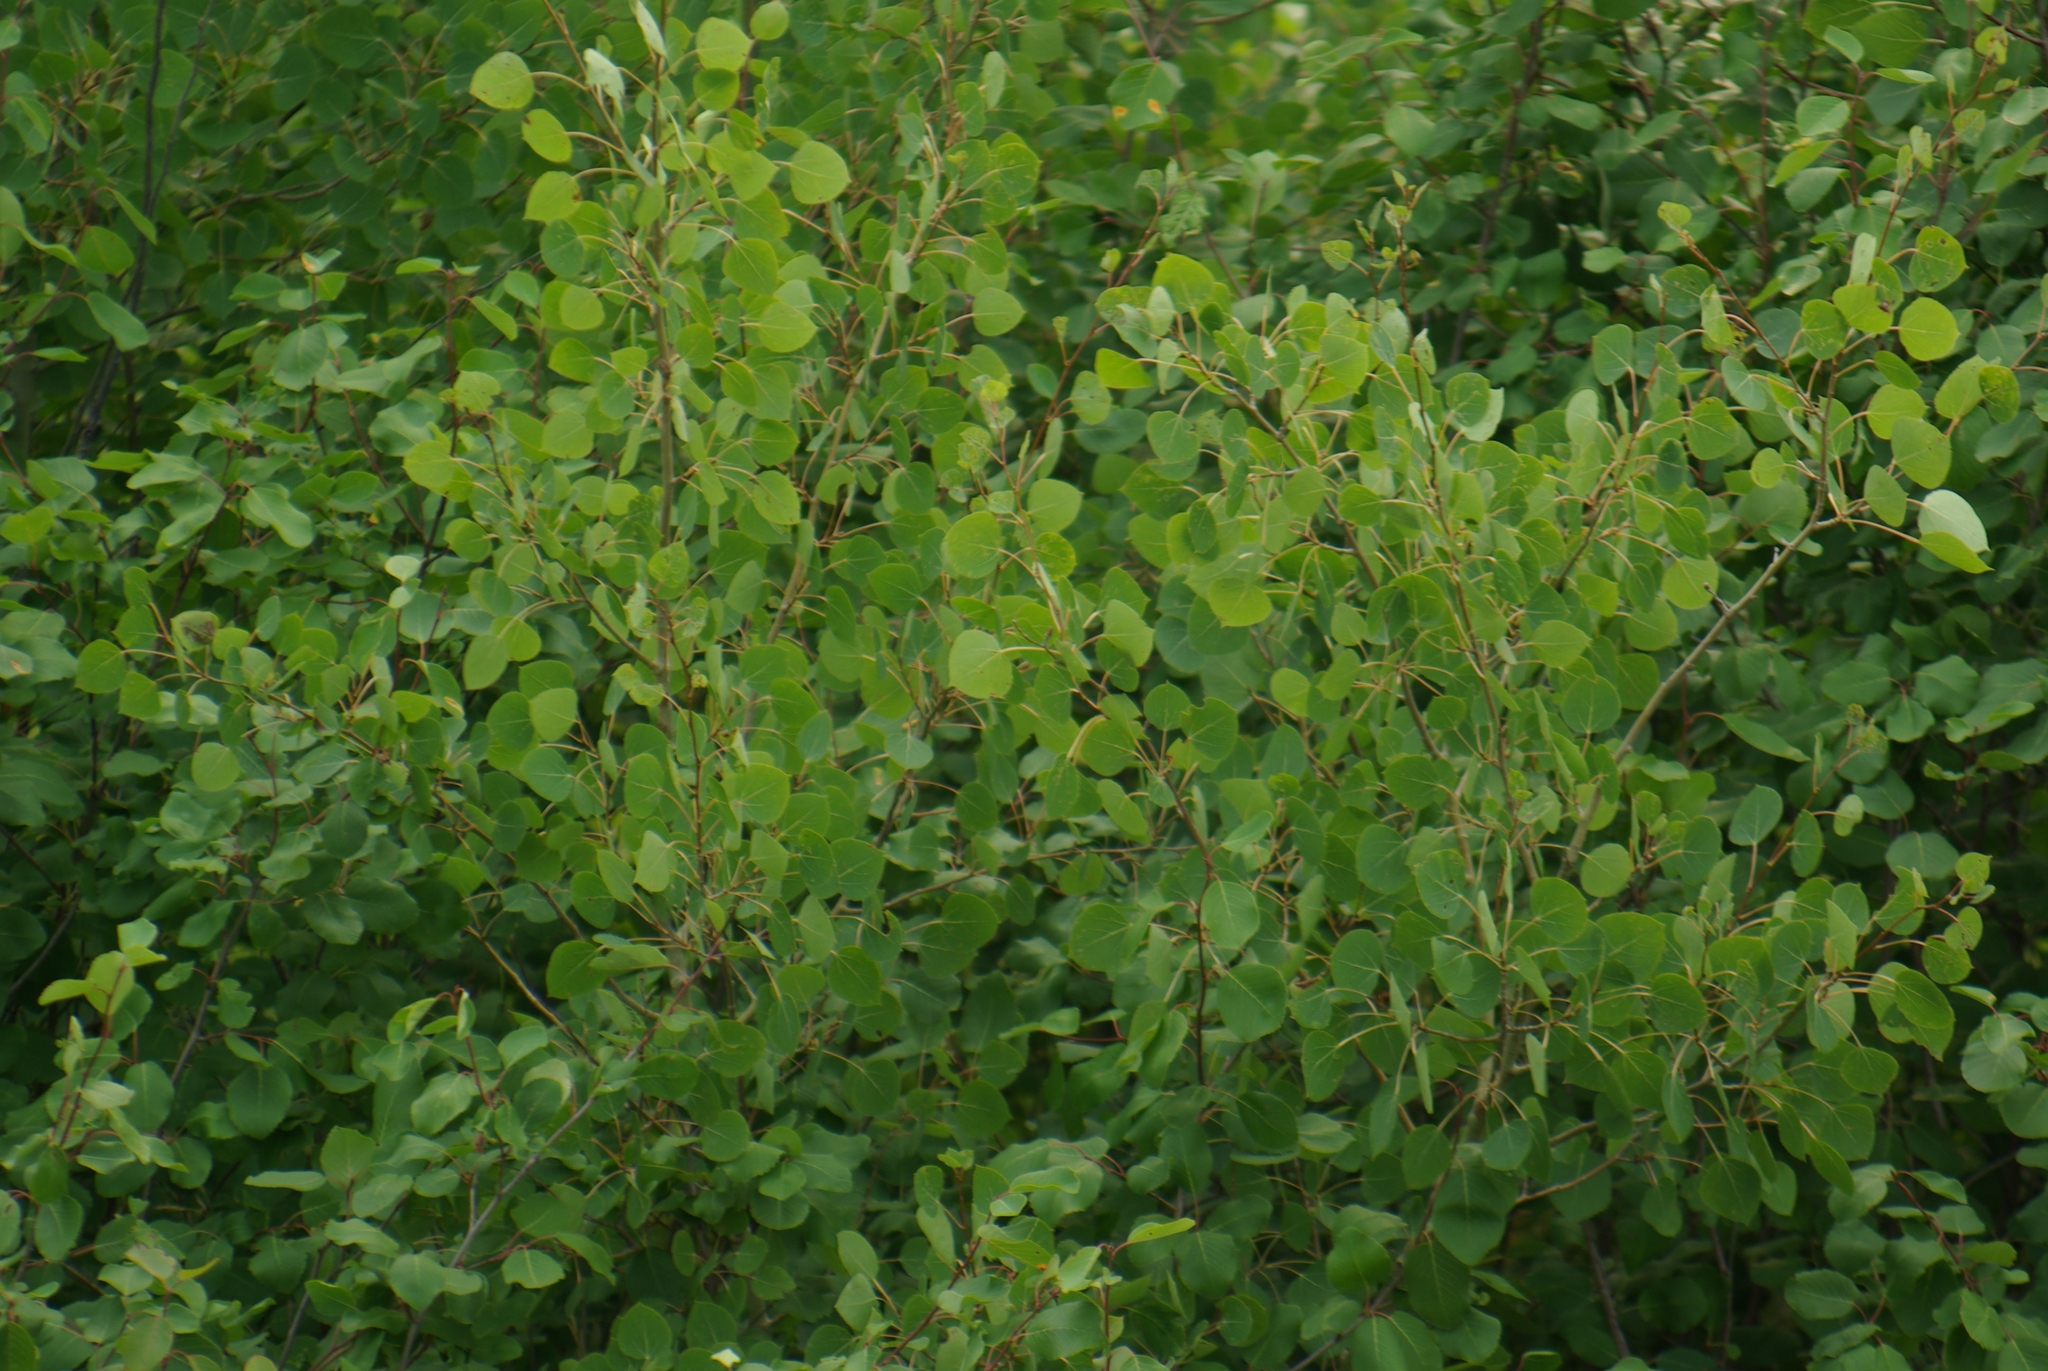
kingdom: Plantae
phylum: Tracheophyta
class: Magnoliopsida
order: Malpighiales
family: Salicaceae
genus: Populus
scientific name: Populus tremuloides
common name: Quaking aspen
